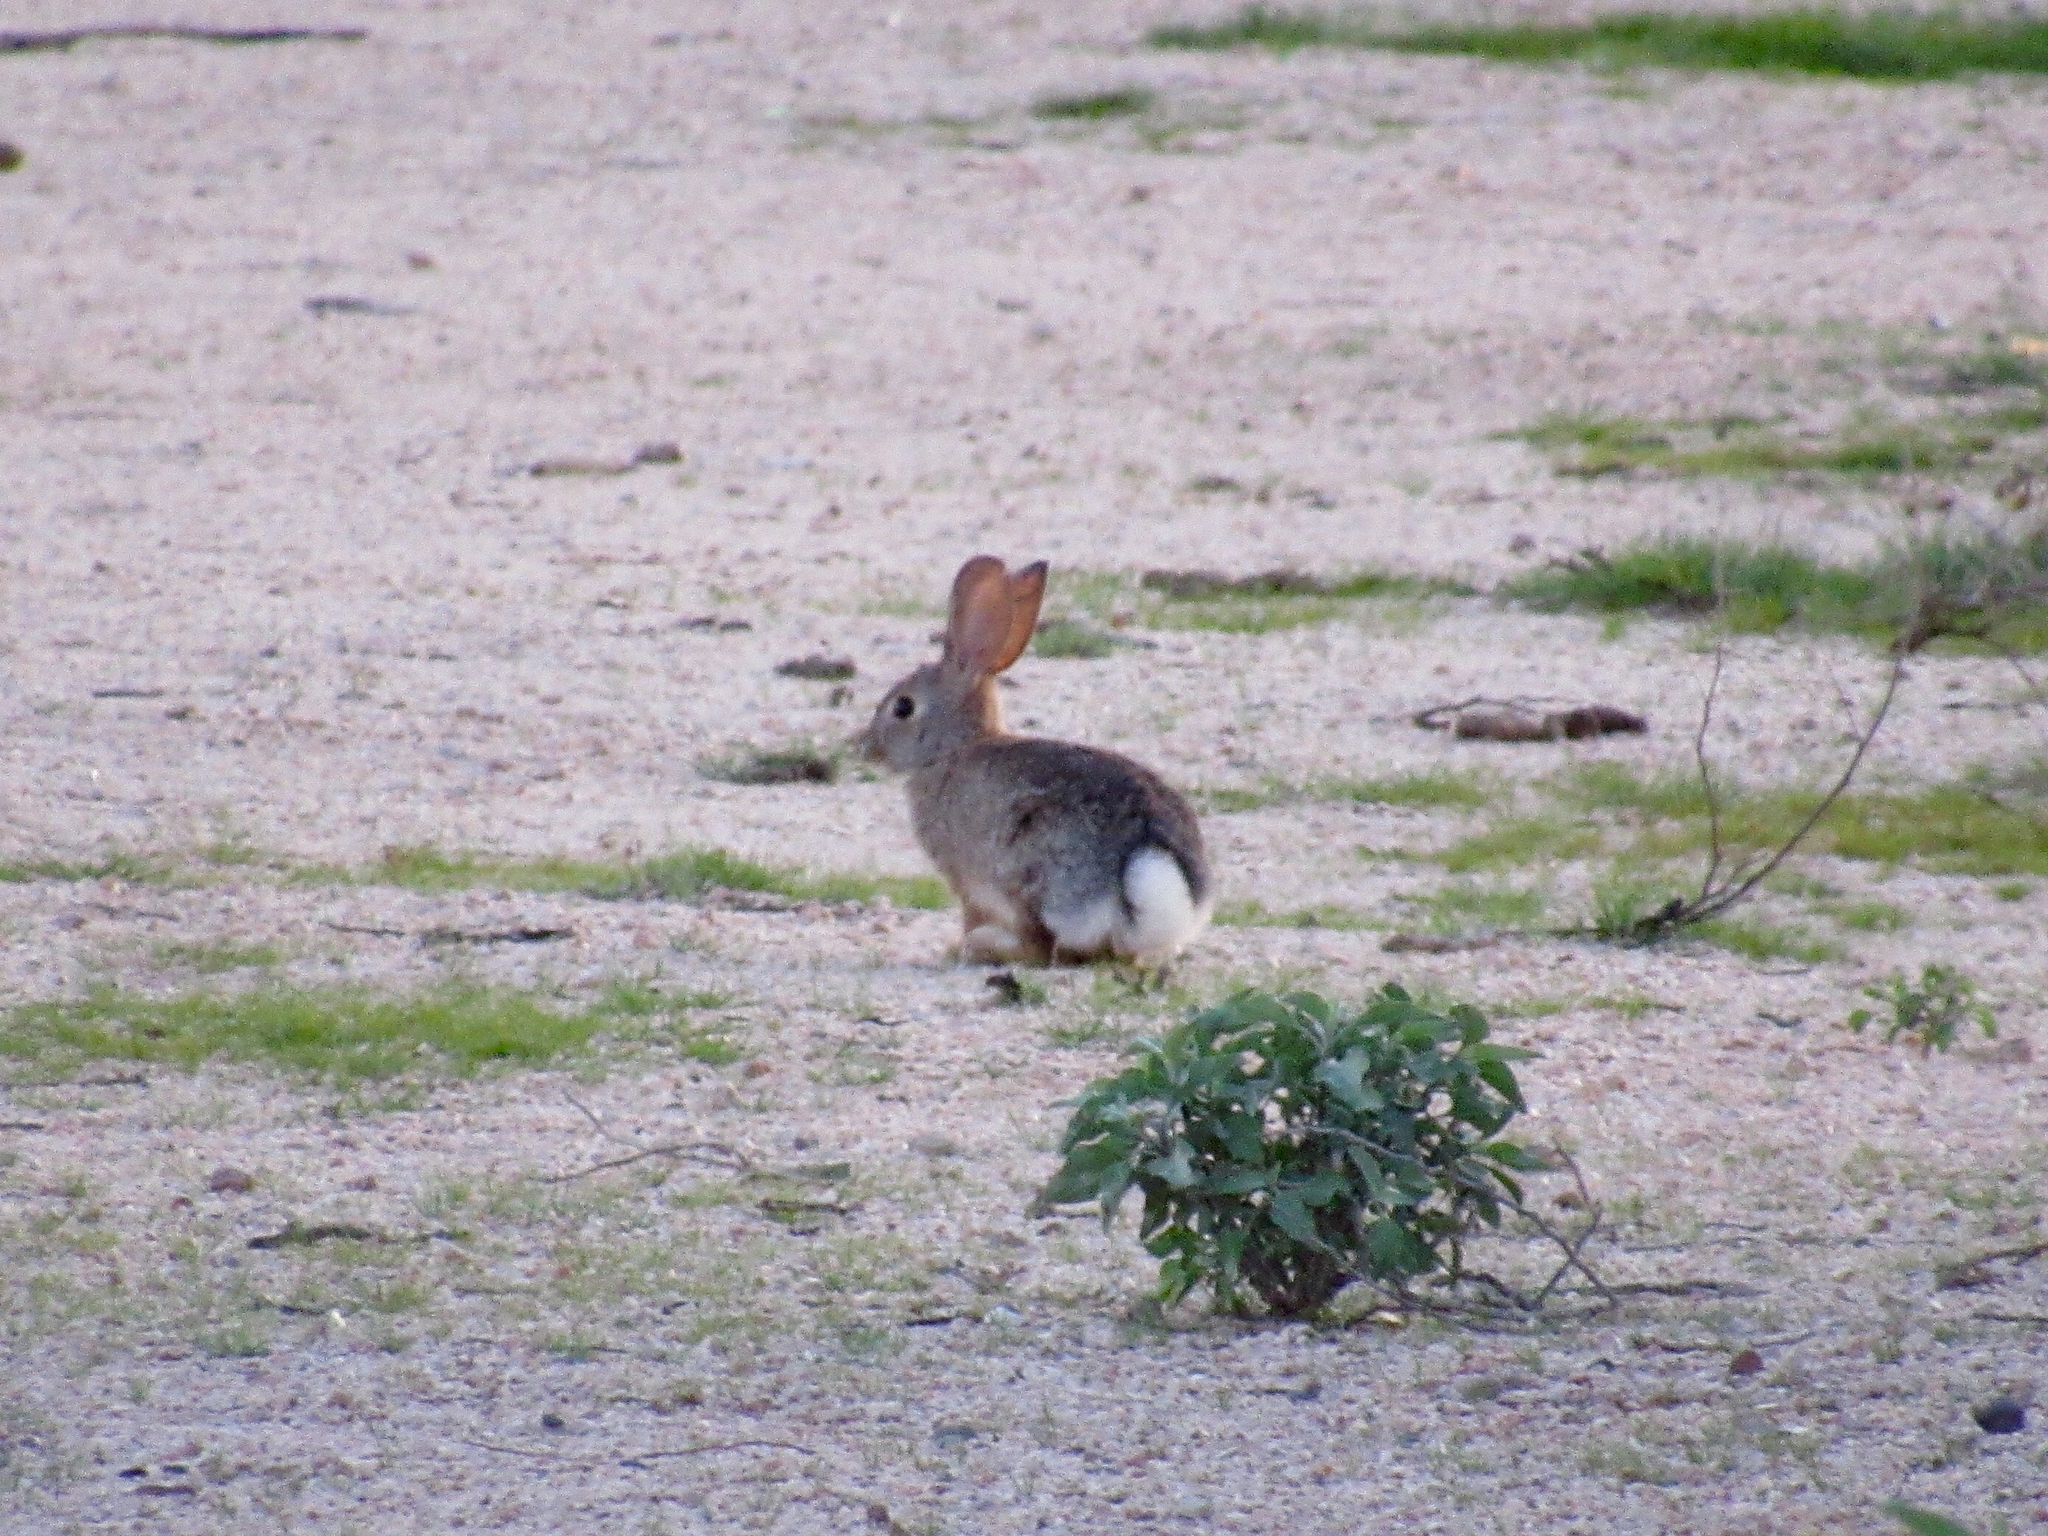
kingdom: Animalia
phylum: Chordata
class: Mammalia
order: Lagomorpha
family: Leporidae
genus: Sylvilagus
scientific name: Sylvilagus audubonii
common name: Desert cottontail
